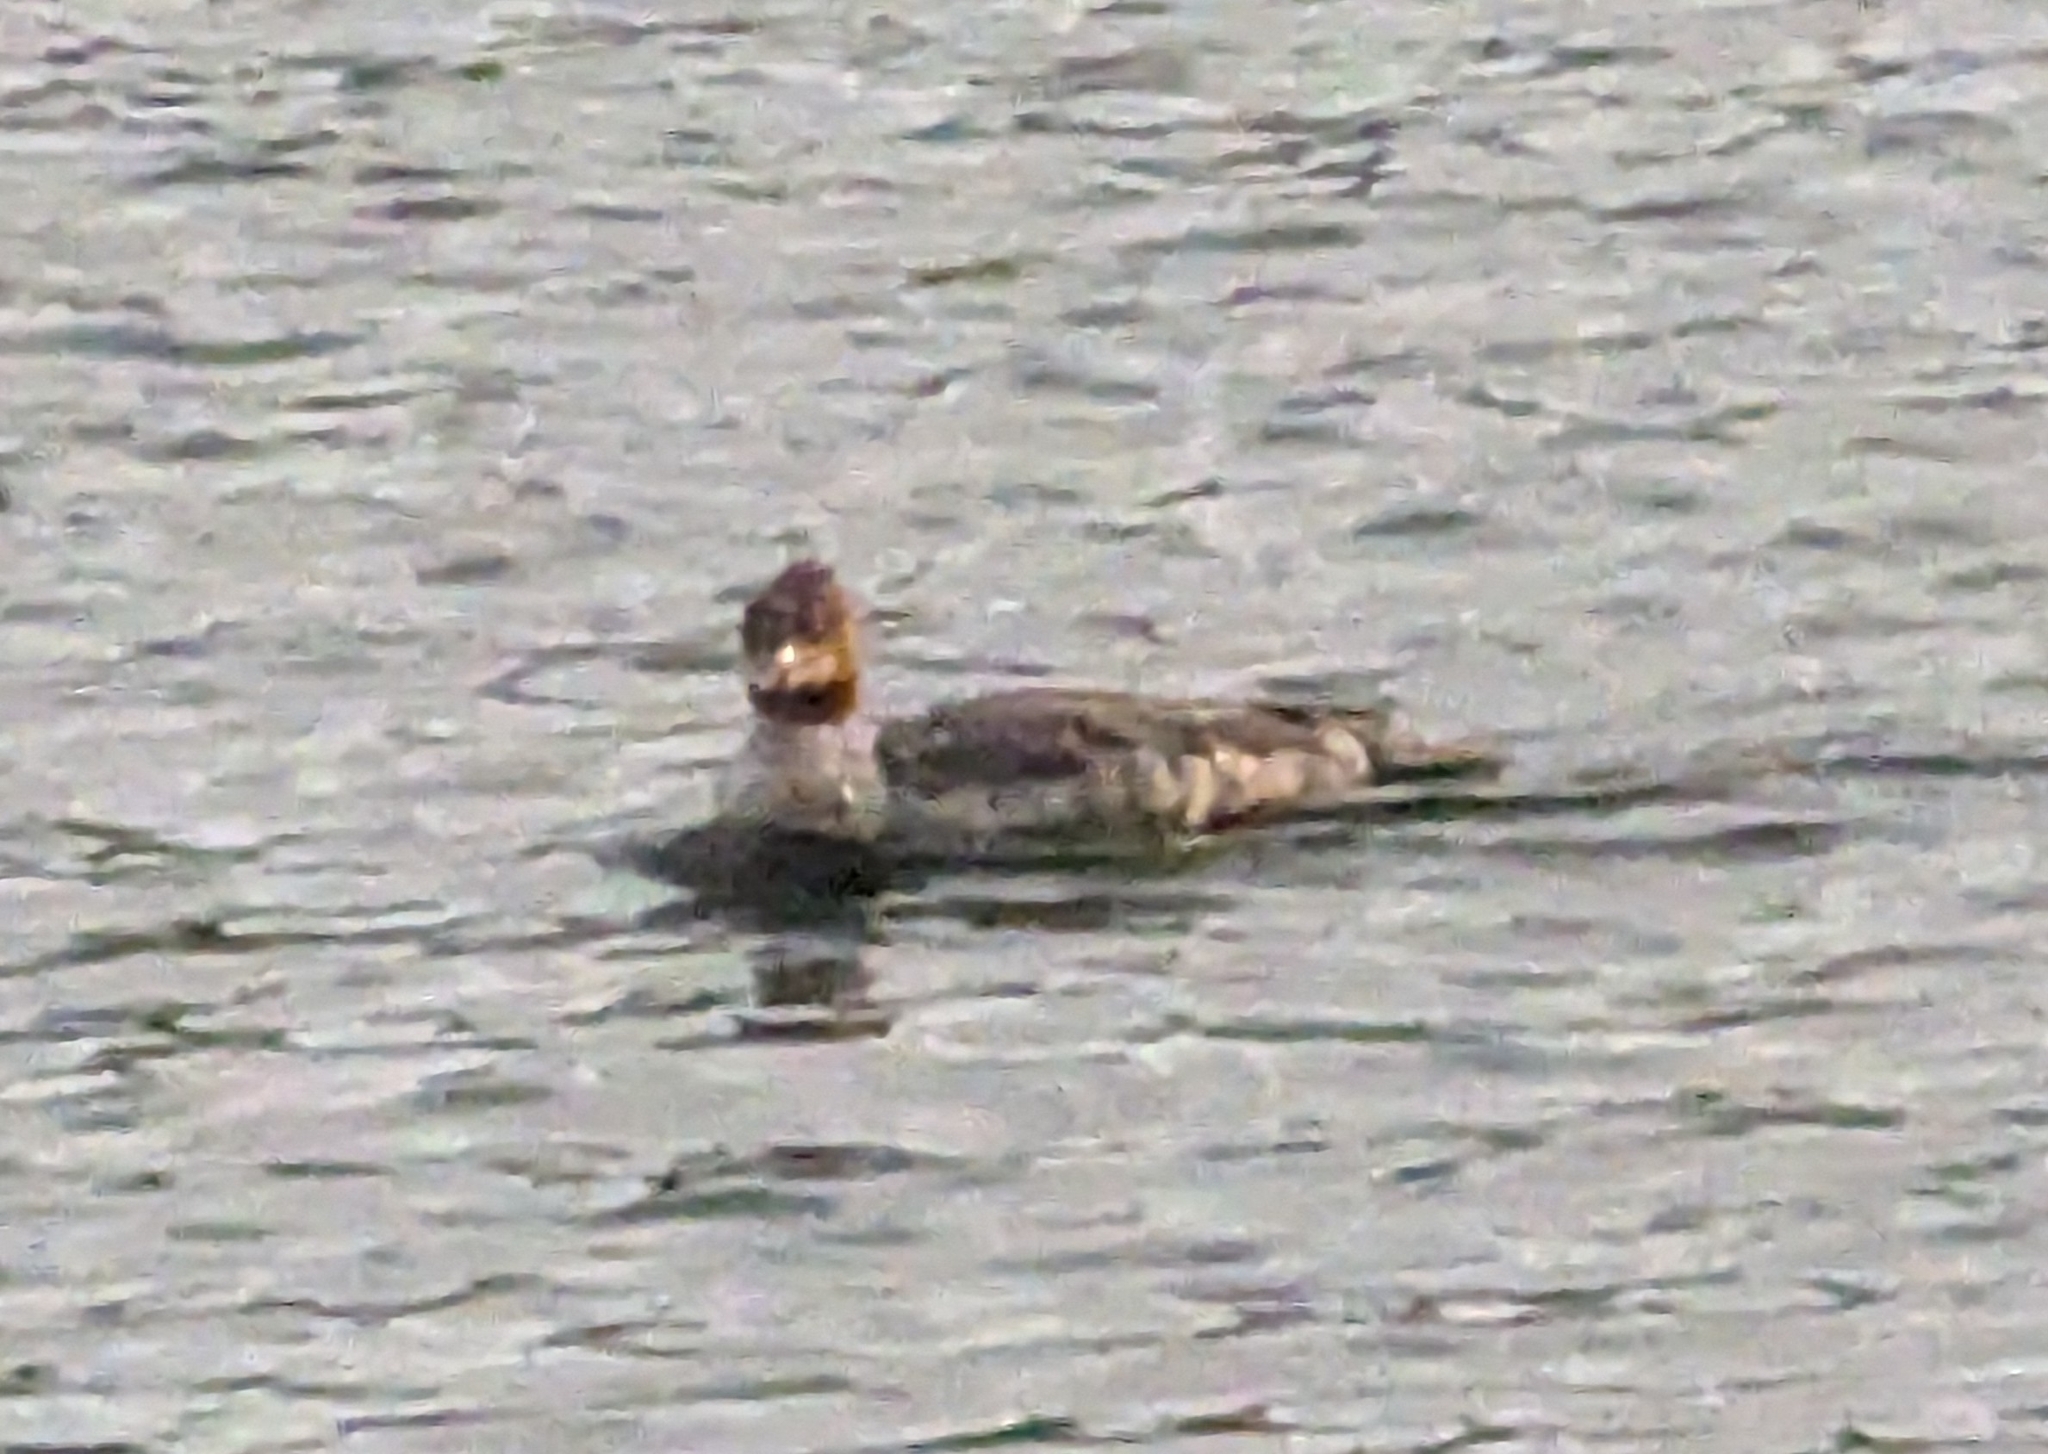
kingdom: Animalia
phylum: Chordata
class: Aves
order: Anseriformes
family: Anatidae
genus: Mergus
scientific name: Mergus merganser
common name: Common merganser
